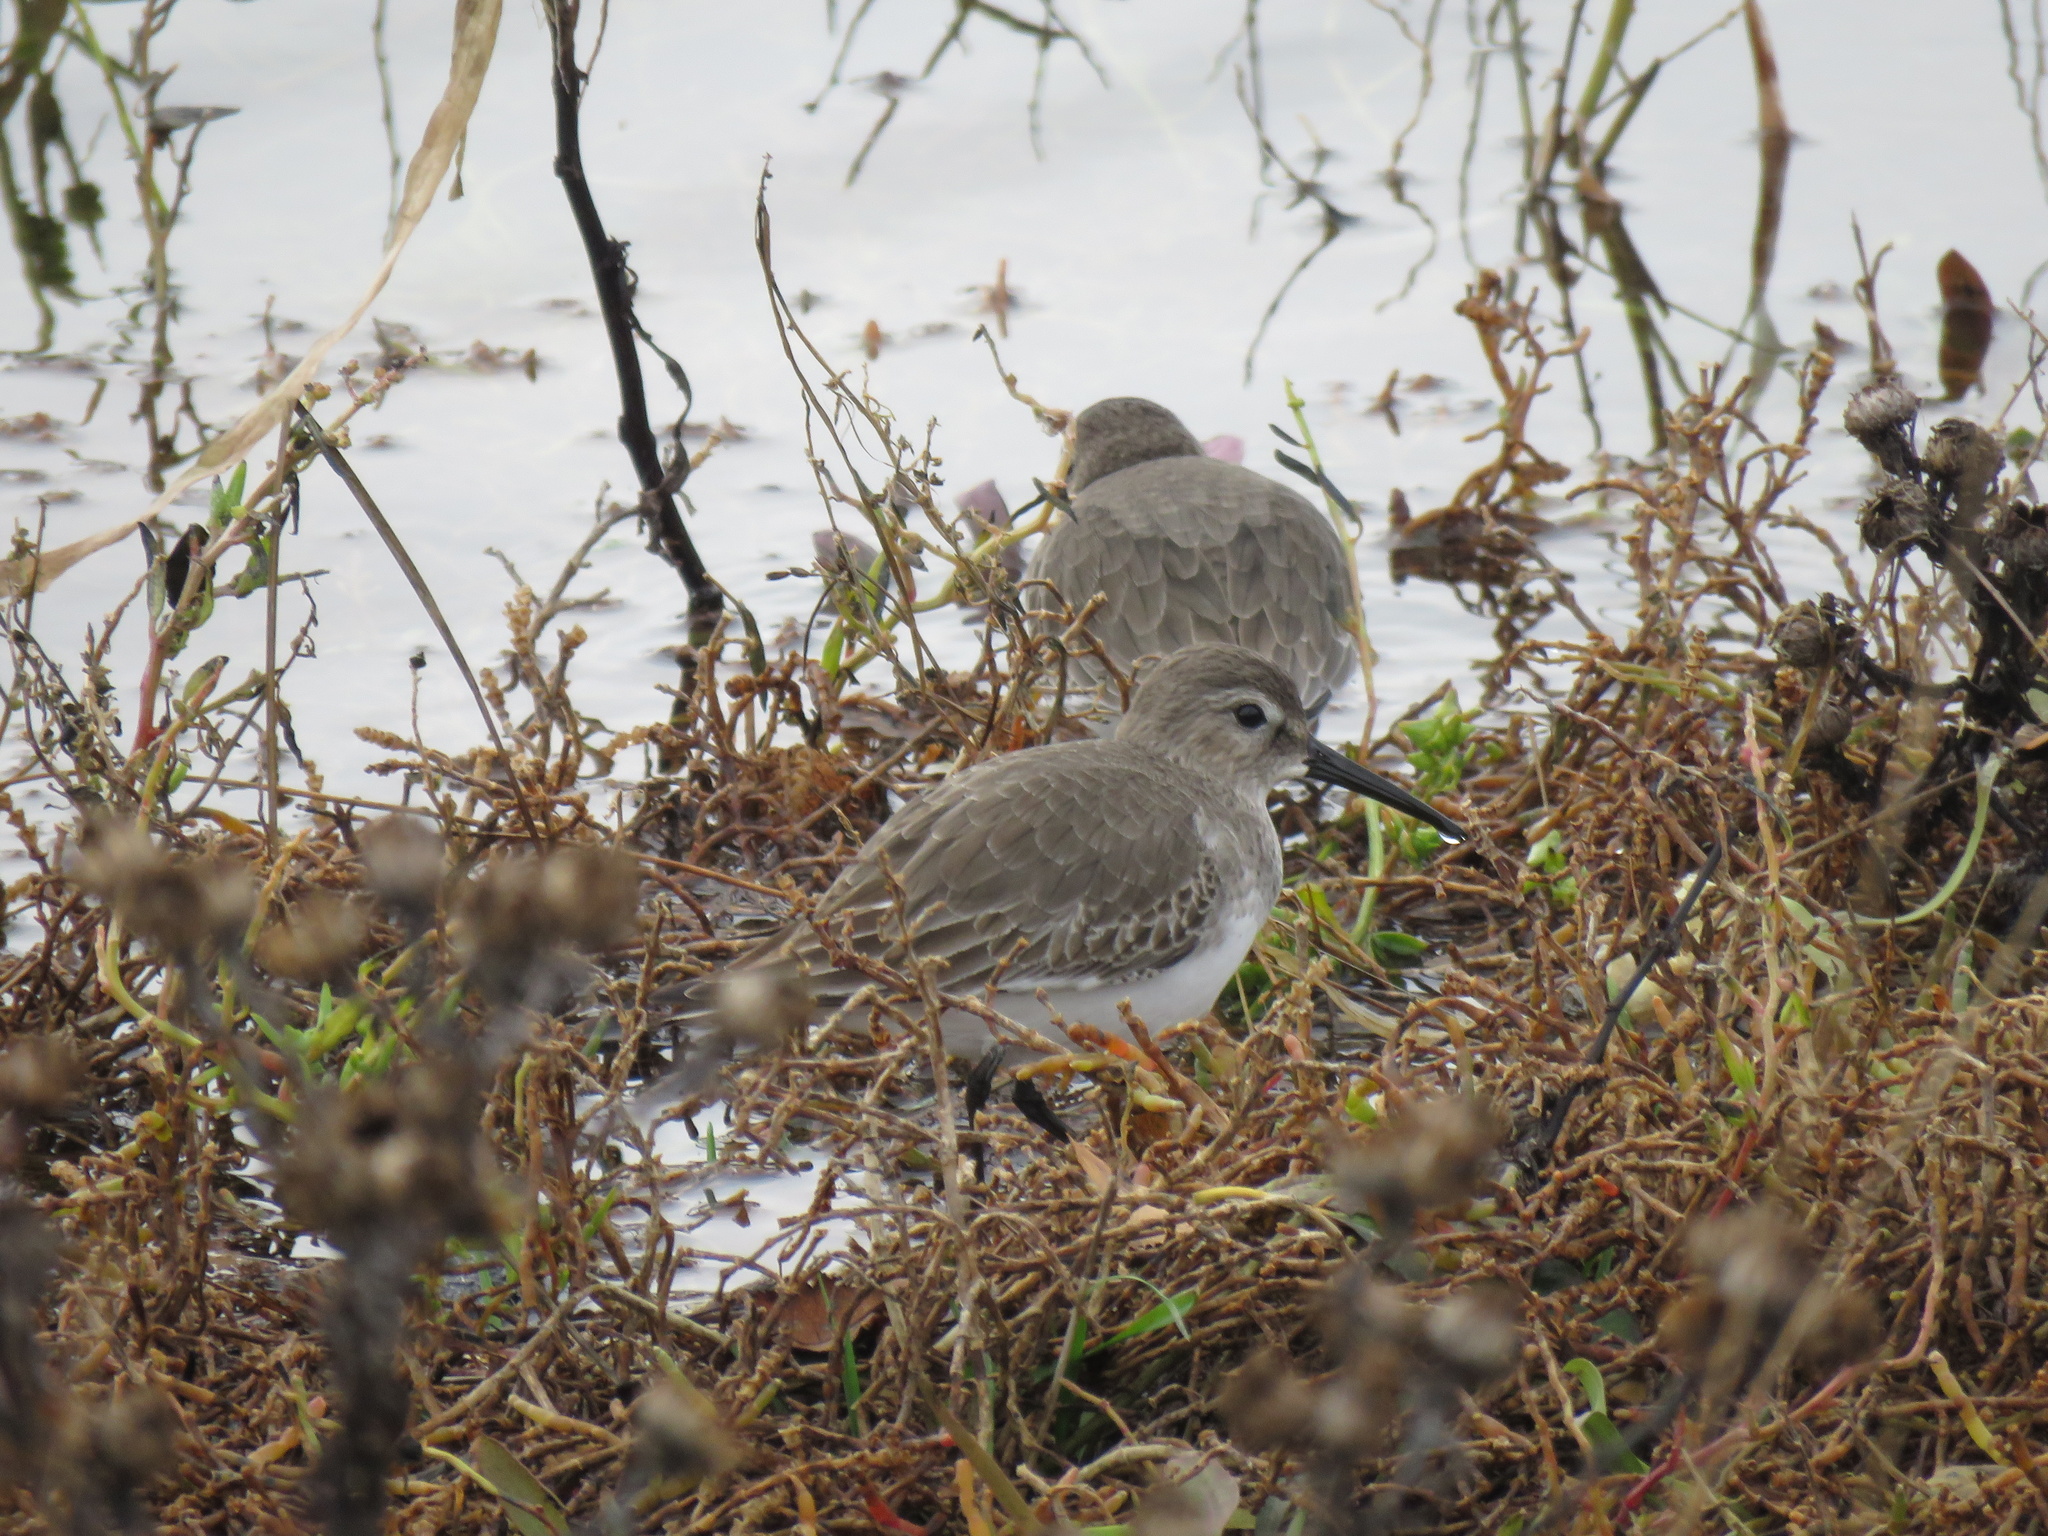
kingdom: Animalia
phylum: Chordata
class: Aves
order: Charadriiformes
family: Scolopacidae
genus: Calidris
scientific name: Calidris alpina
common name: Dunlin
